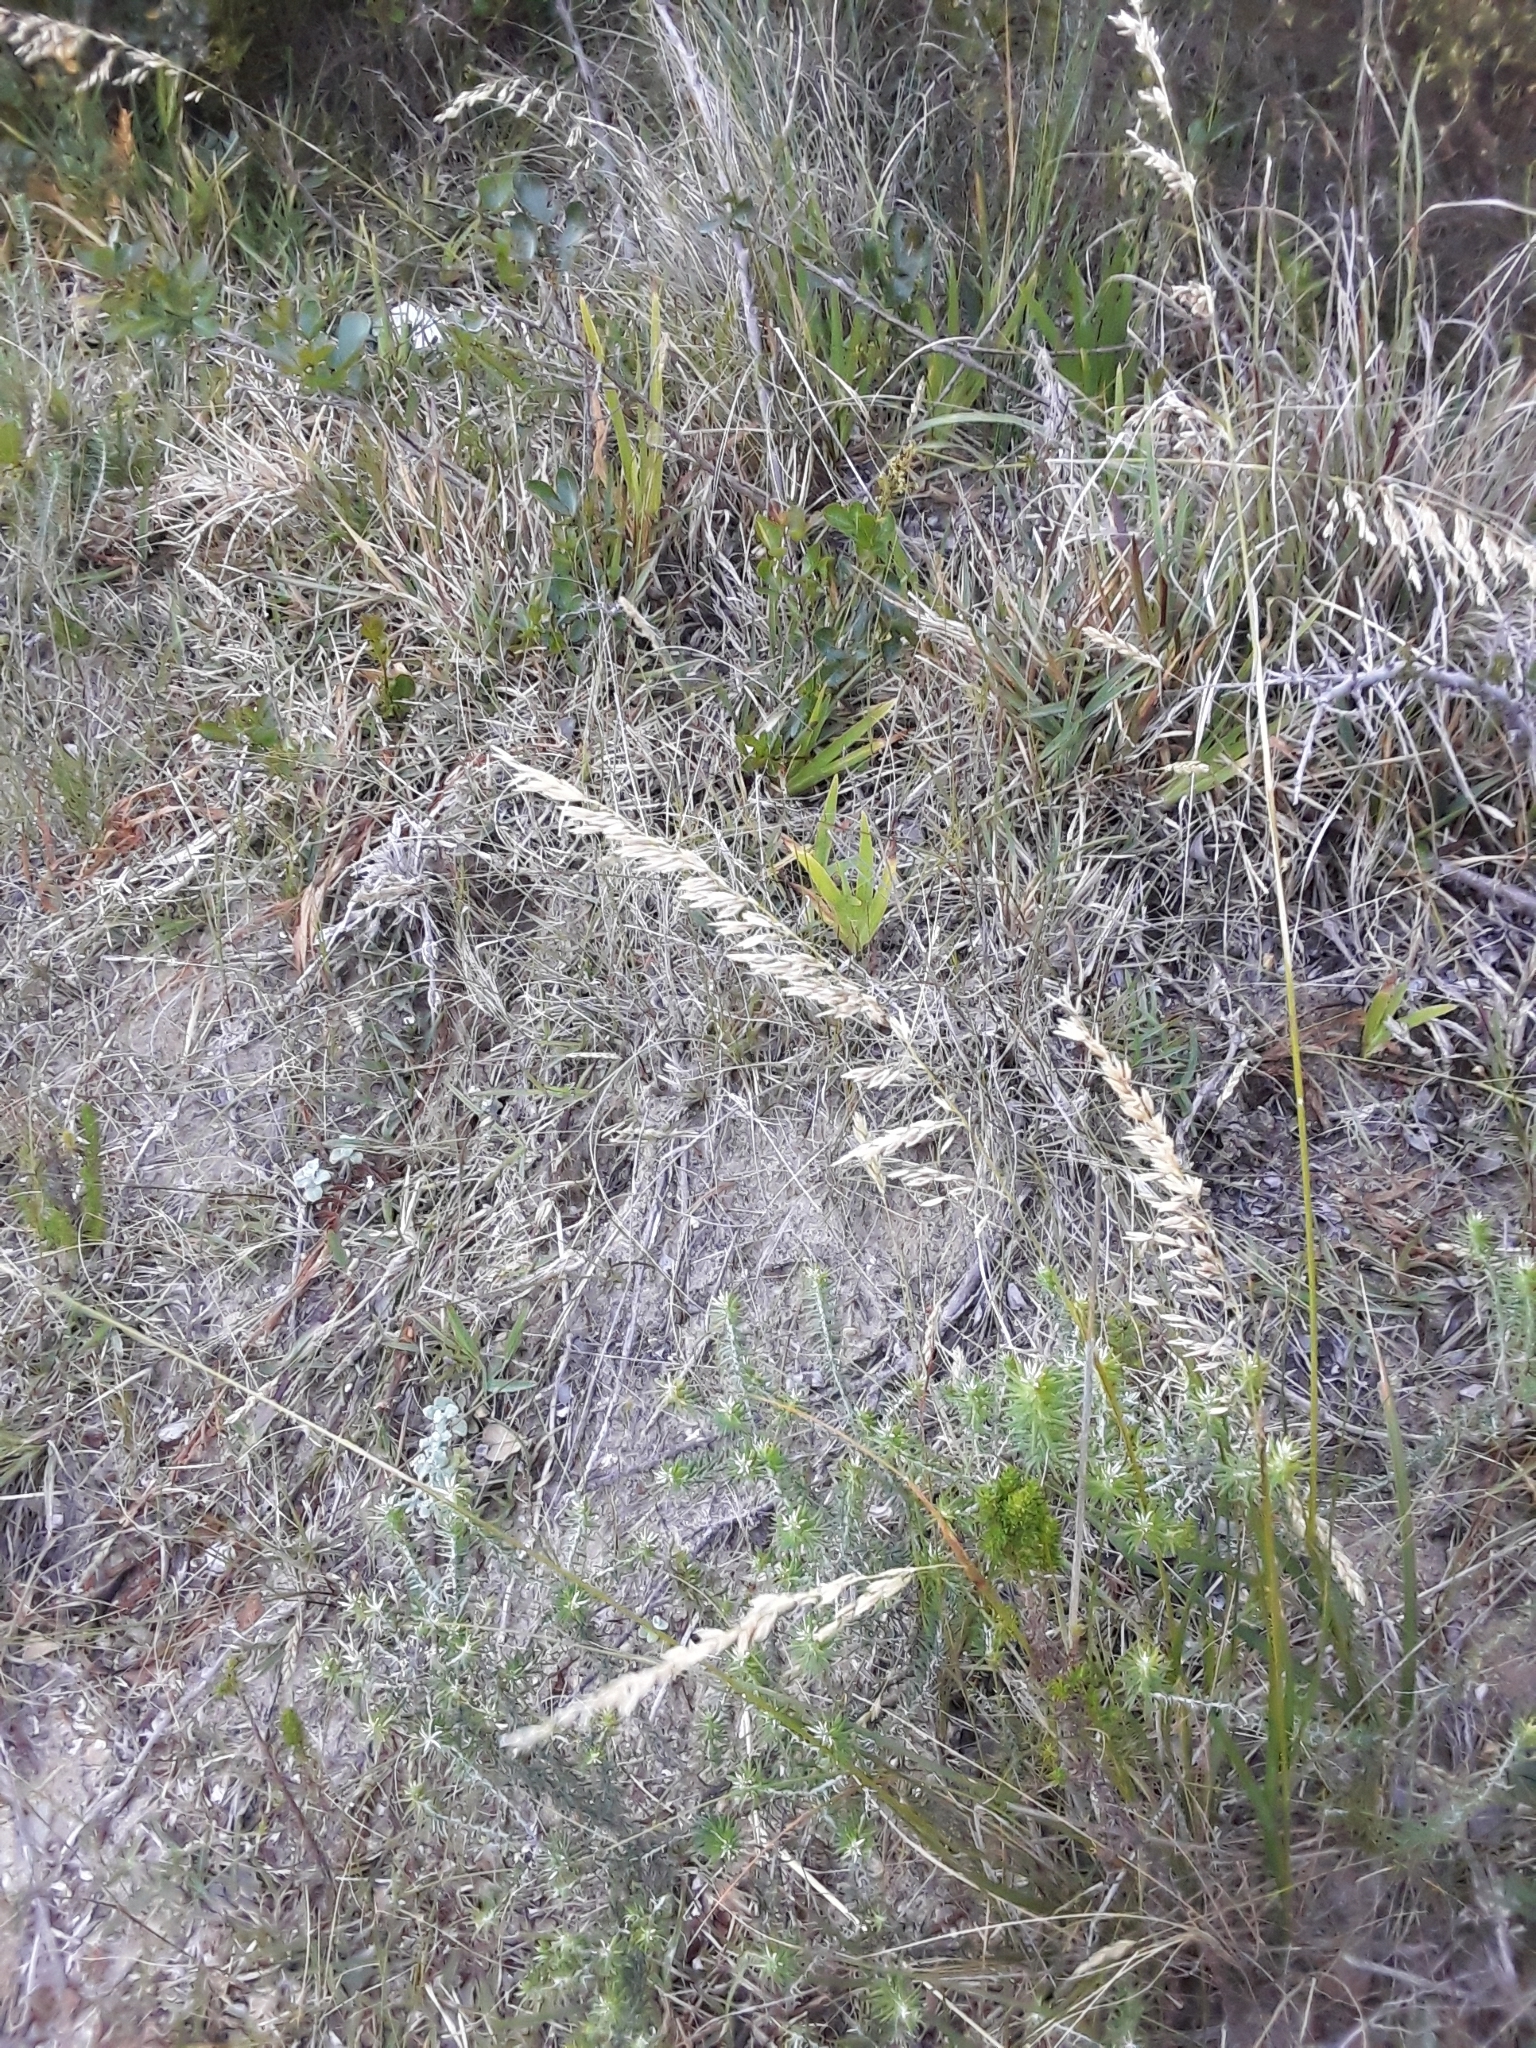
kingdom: Plantae
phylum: Tracheophyta
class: Liliopsida
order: Poales
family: Poaceae
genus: Ehrharta
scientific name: Ehrharta calycina
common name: Perennial veldtgrass
